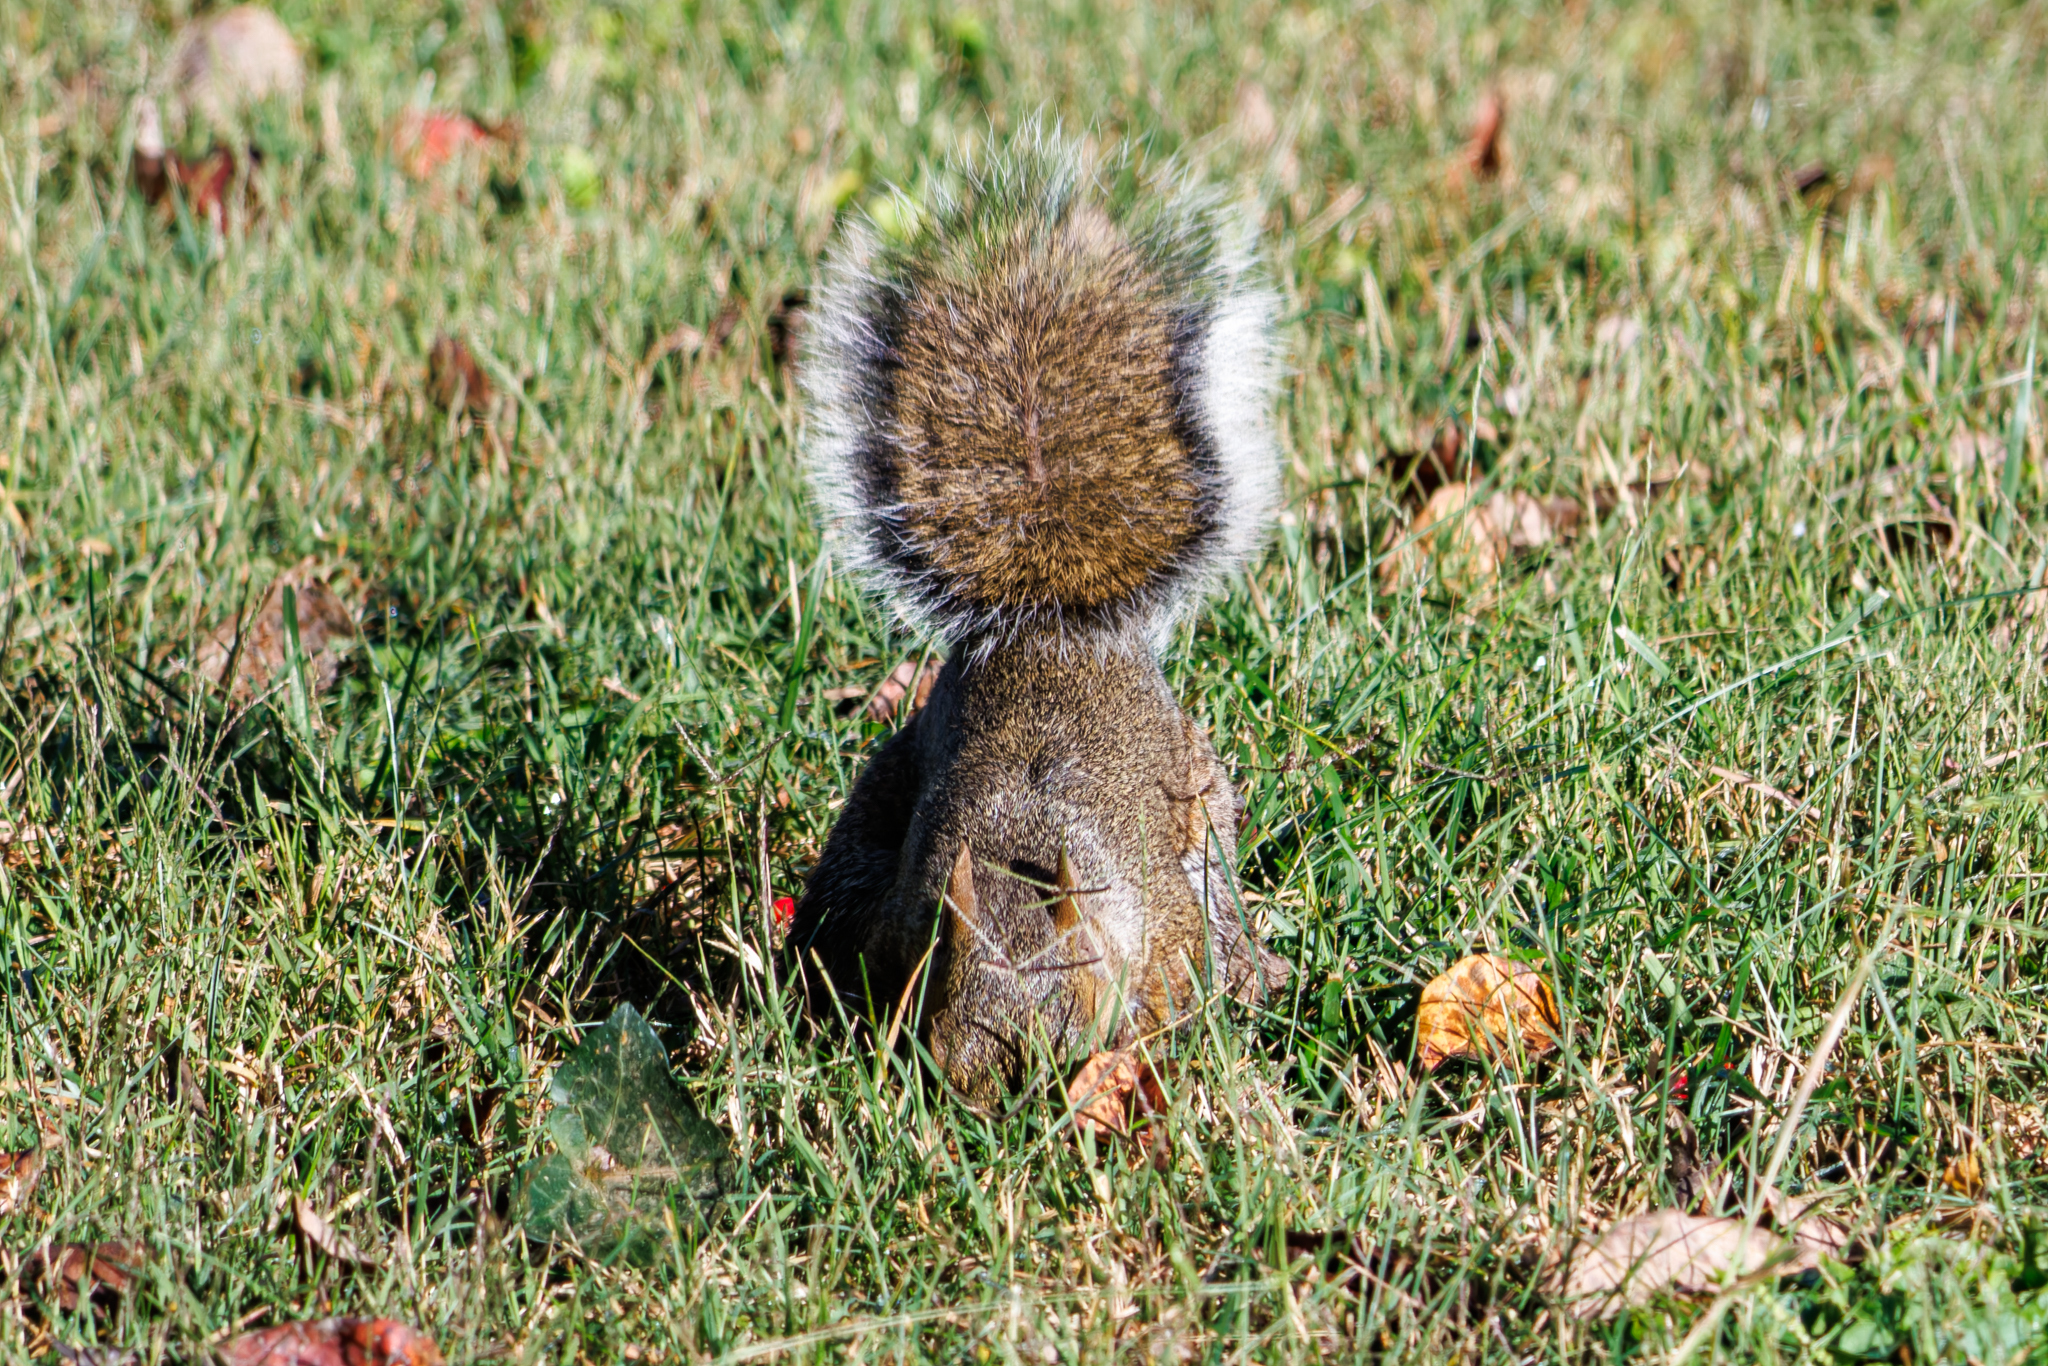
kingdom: Animalia
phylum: Chordata
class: Mammalia
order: Rodentia
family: Sciuridae
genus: Sciurus
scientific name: Sciurus carolinensis
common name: Eastern gray squirrel
